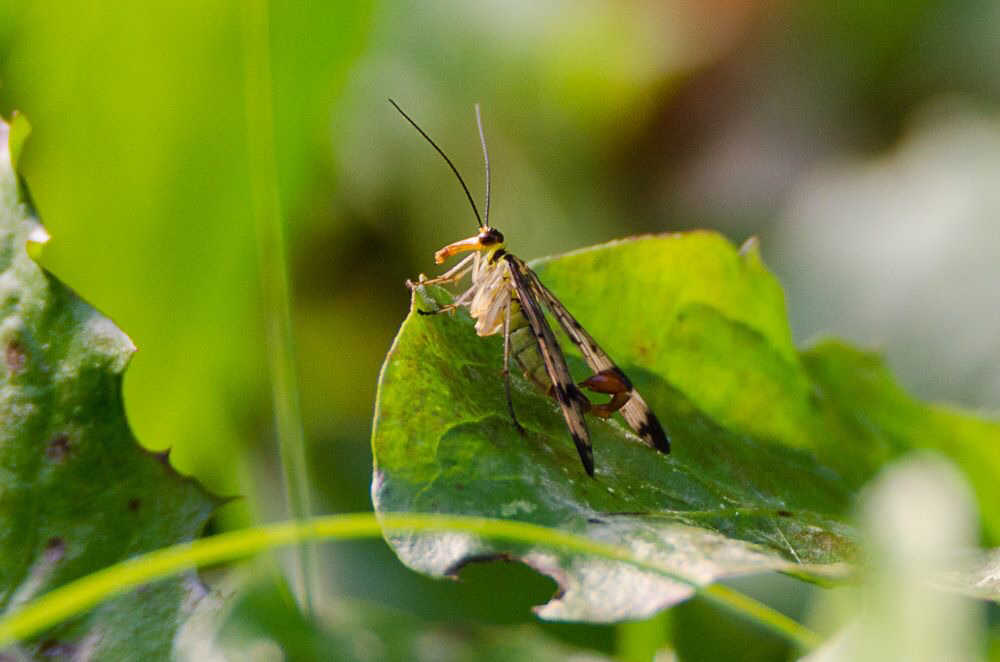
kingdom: Animalia
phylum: Arthropoda
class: Insecta
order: Mecoptera
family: Panorpidae
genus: Panorpa
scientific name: Panorpa communis
